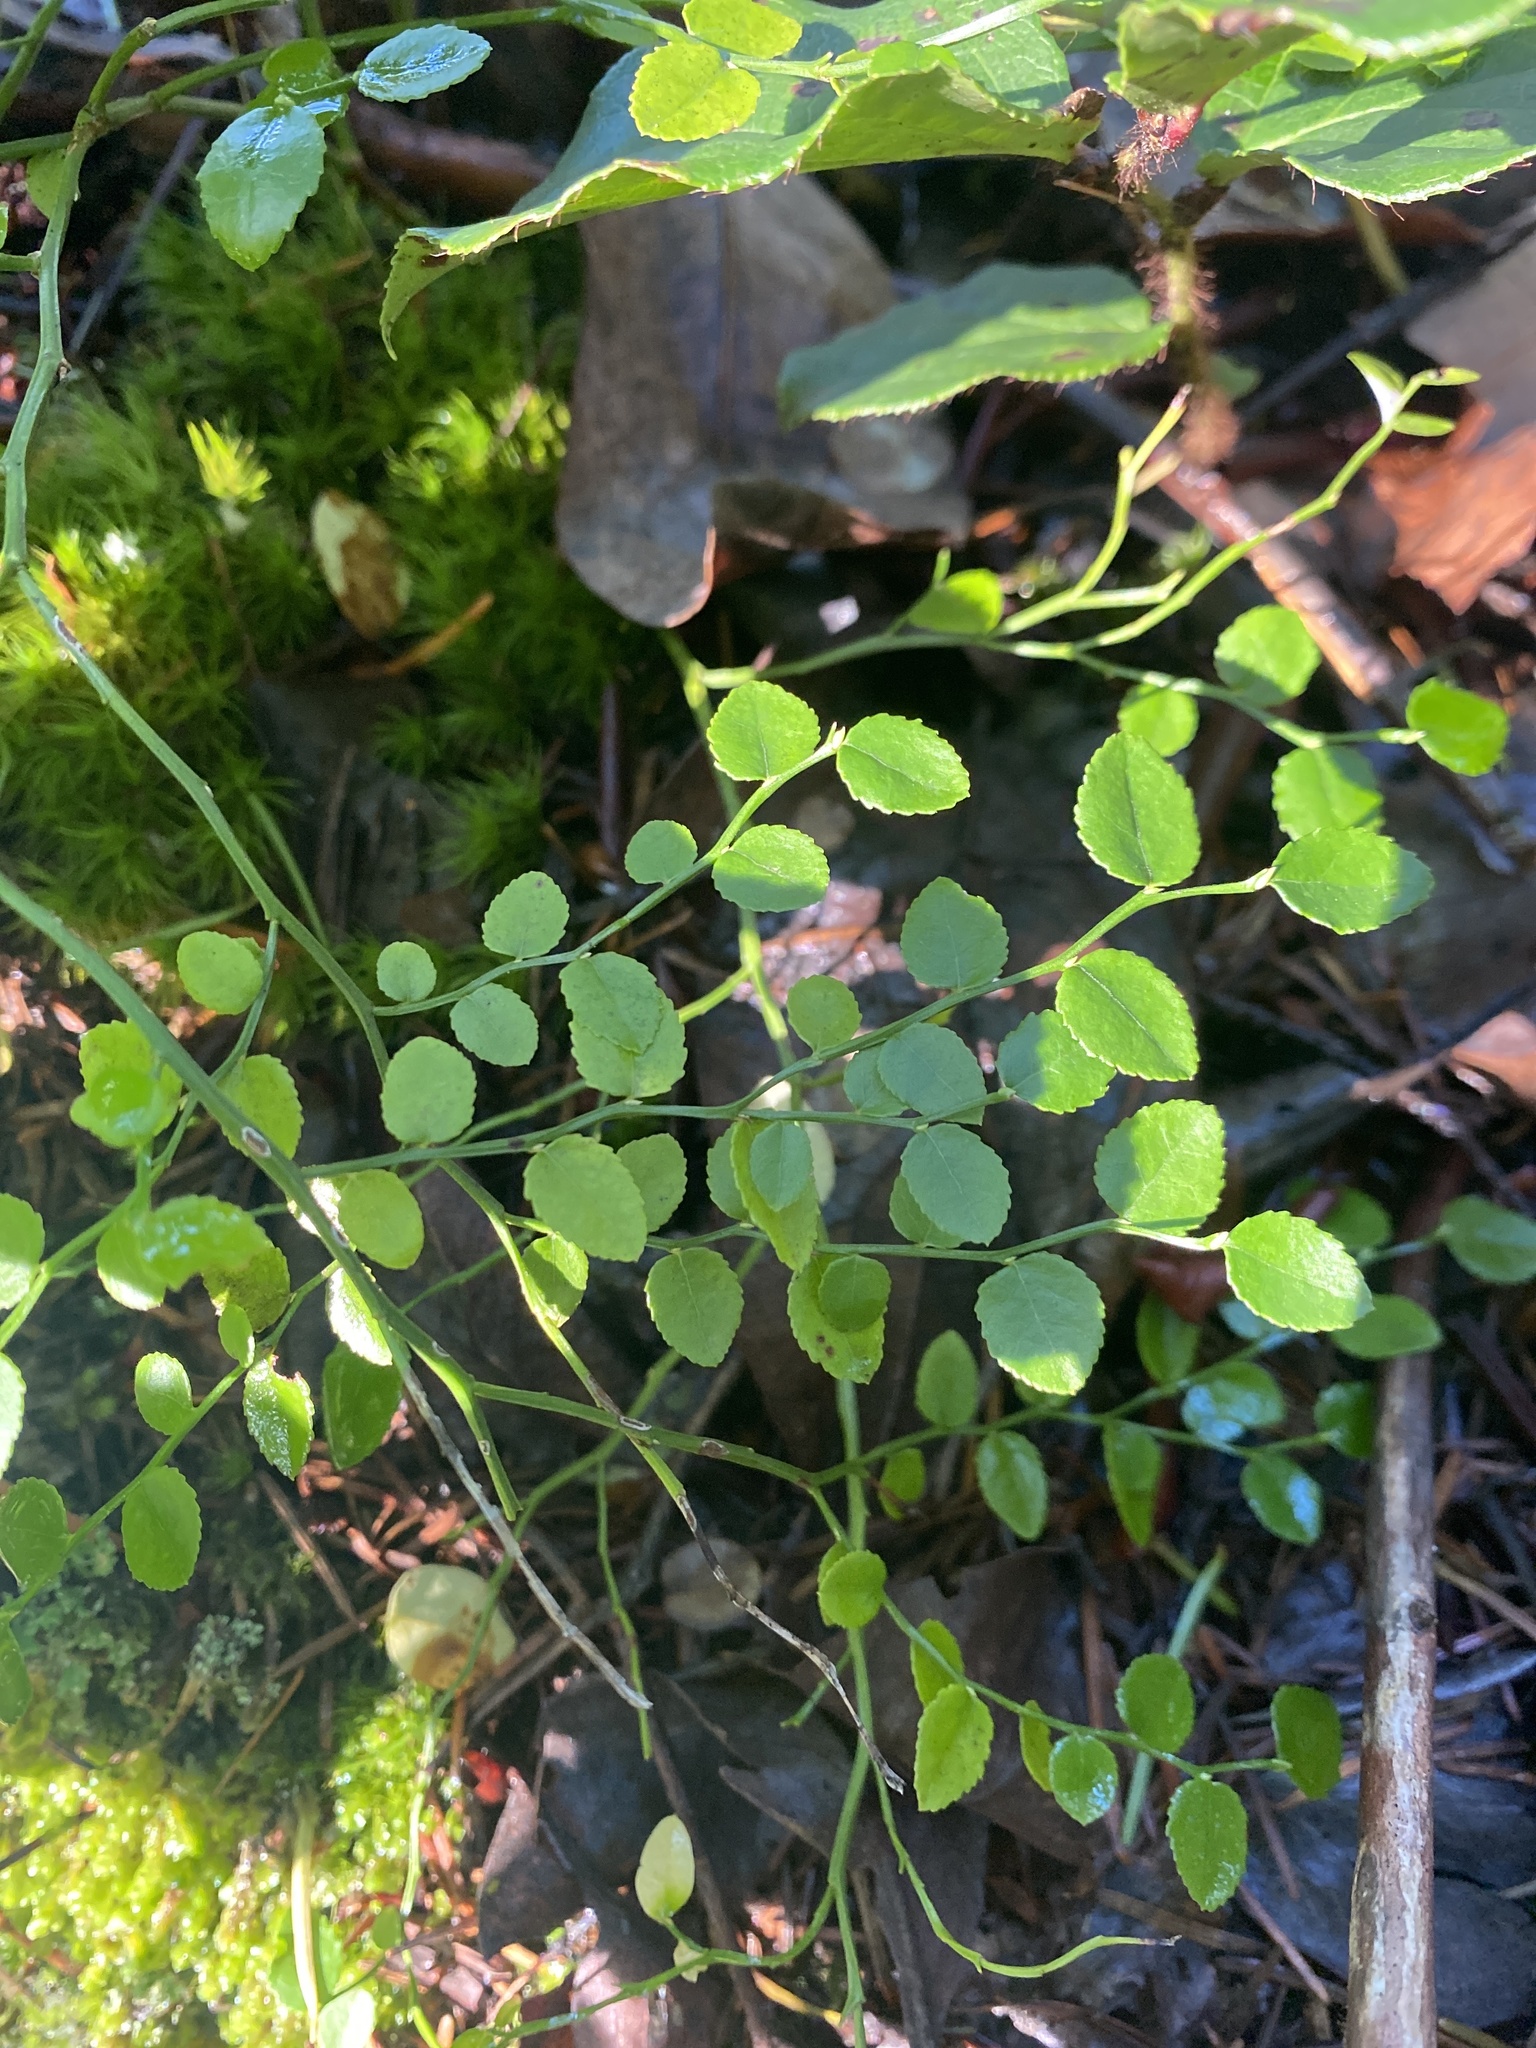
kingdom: Plantae
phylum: Tracheophyta
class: Magnoliopsida
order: Ericales
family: Ericaceae
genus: Vaccinium
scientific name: Vaccinium parvifolium
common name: Red-huckleberry
